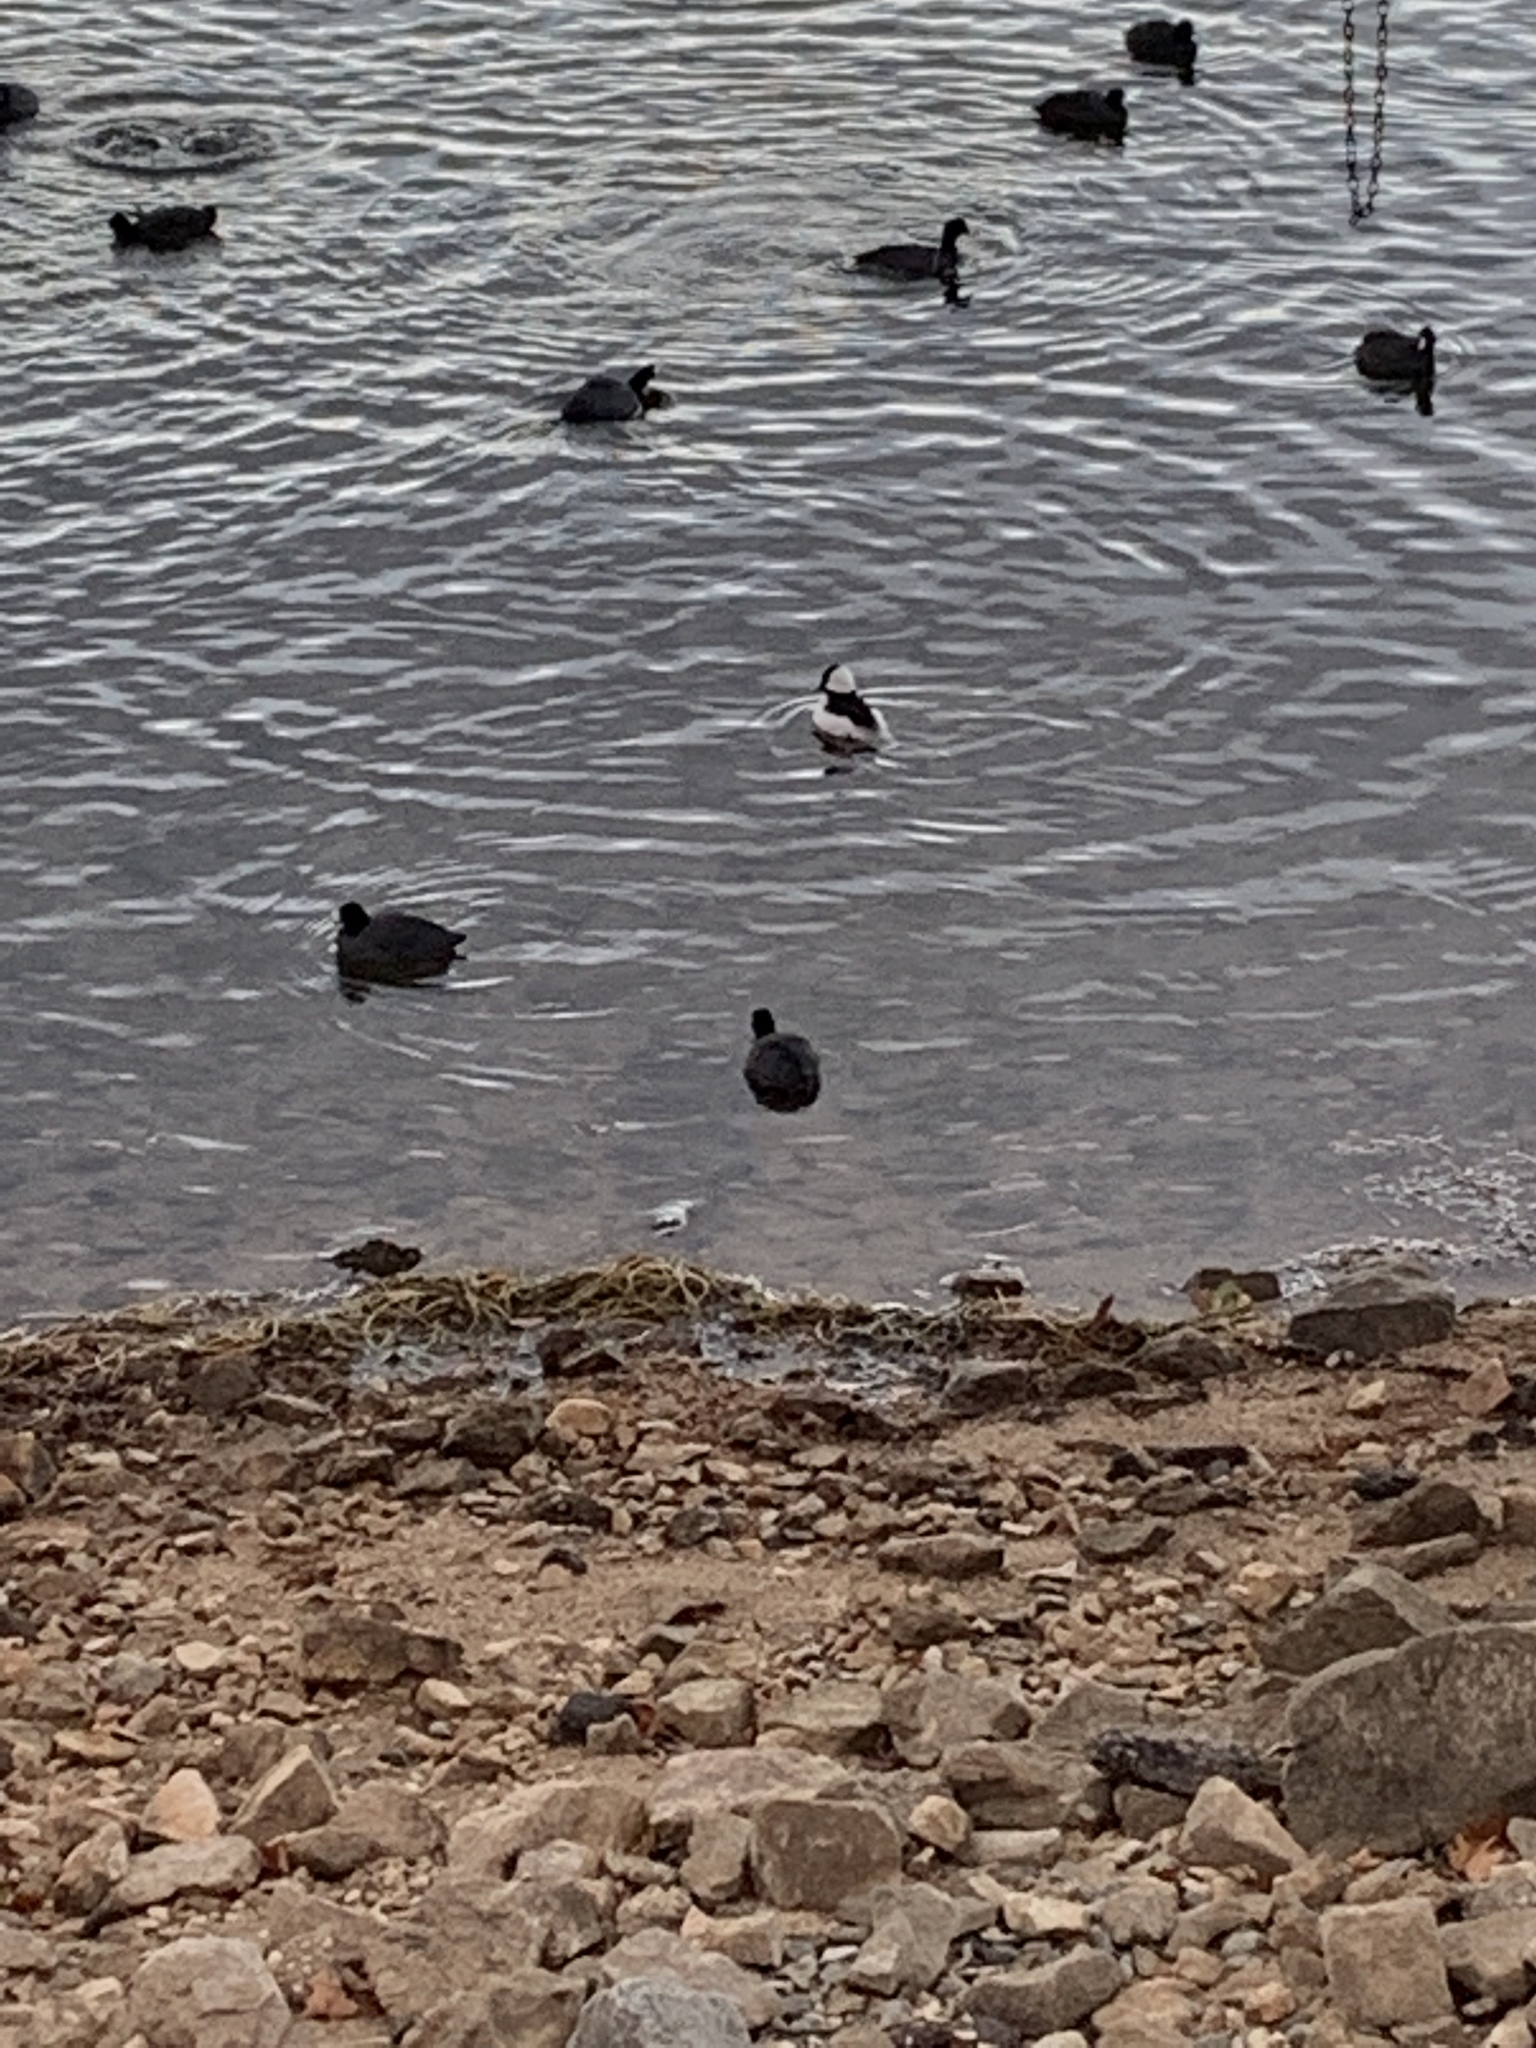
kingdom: Animalia
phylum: Chordata
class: Aves
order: Anseriformes
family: Anatidae
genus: Bucephala
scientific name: Bucephala albeola
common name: Bufflehead
